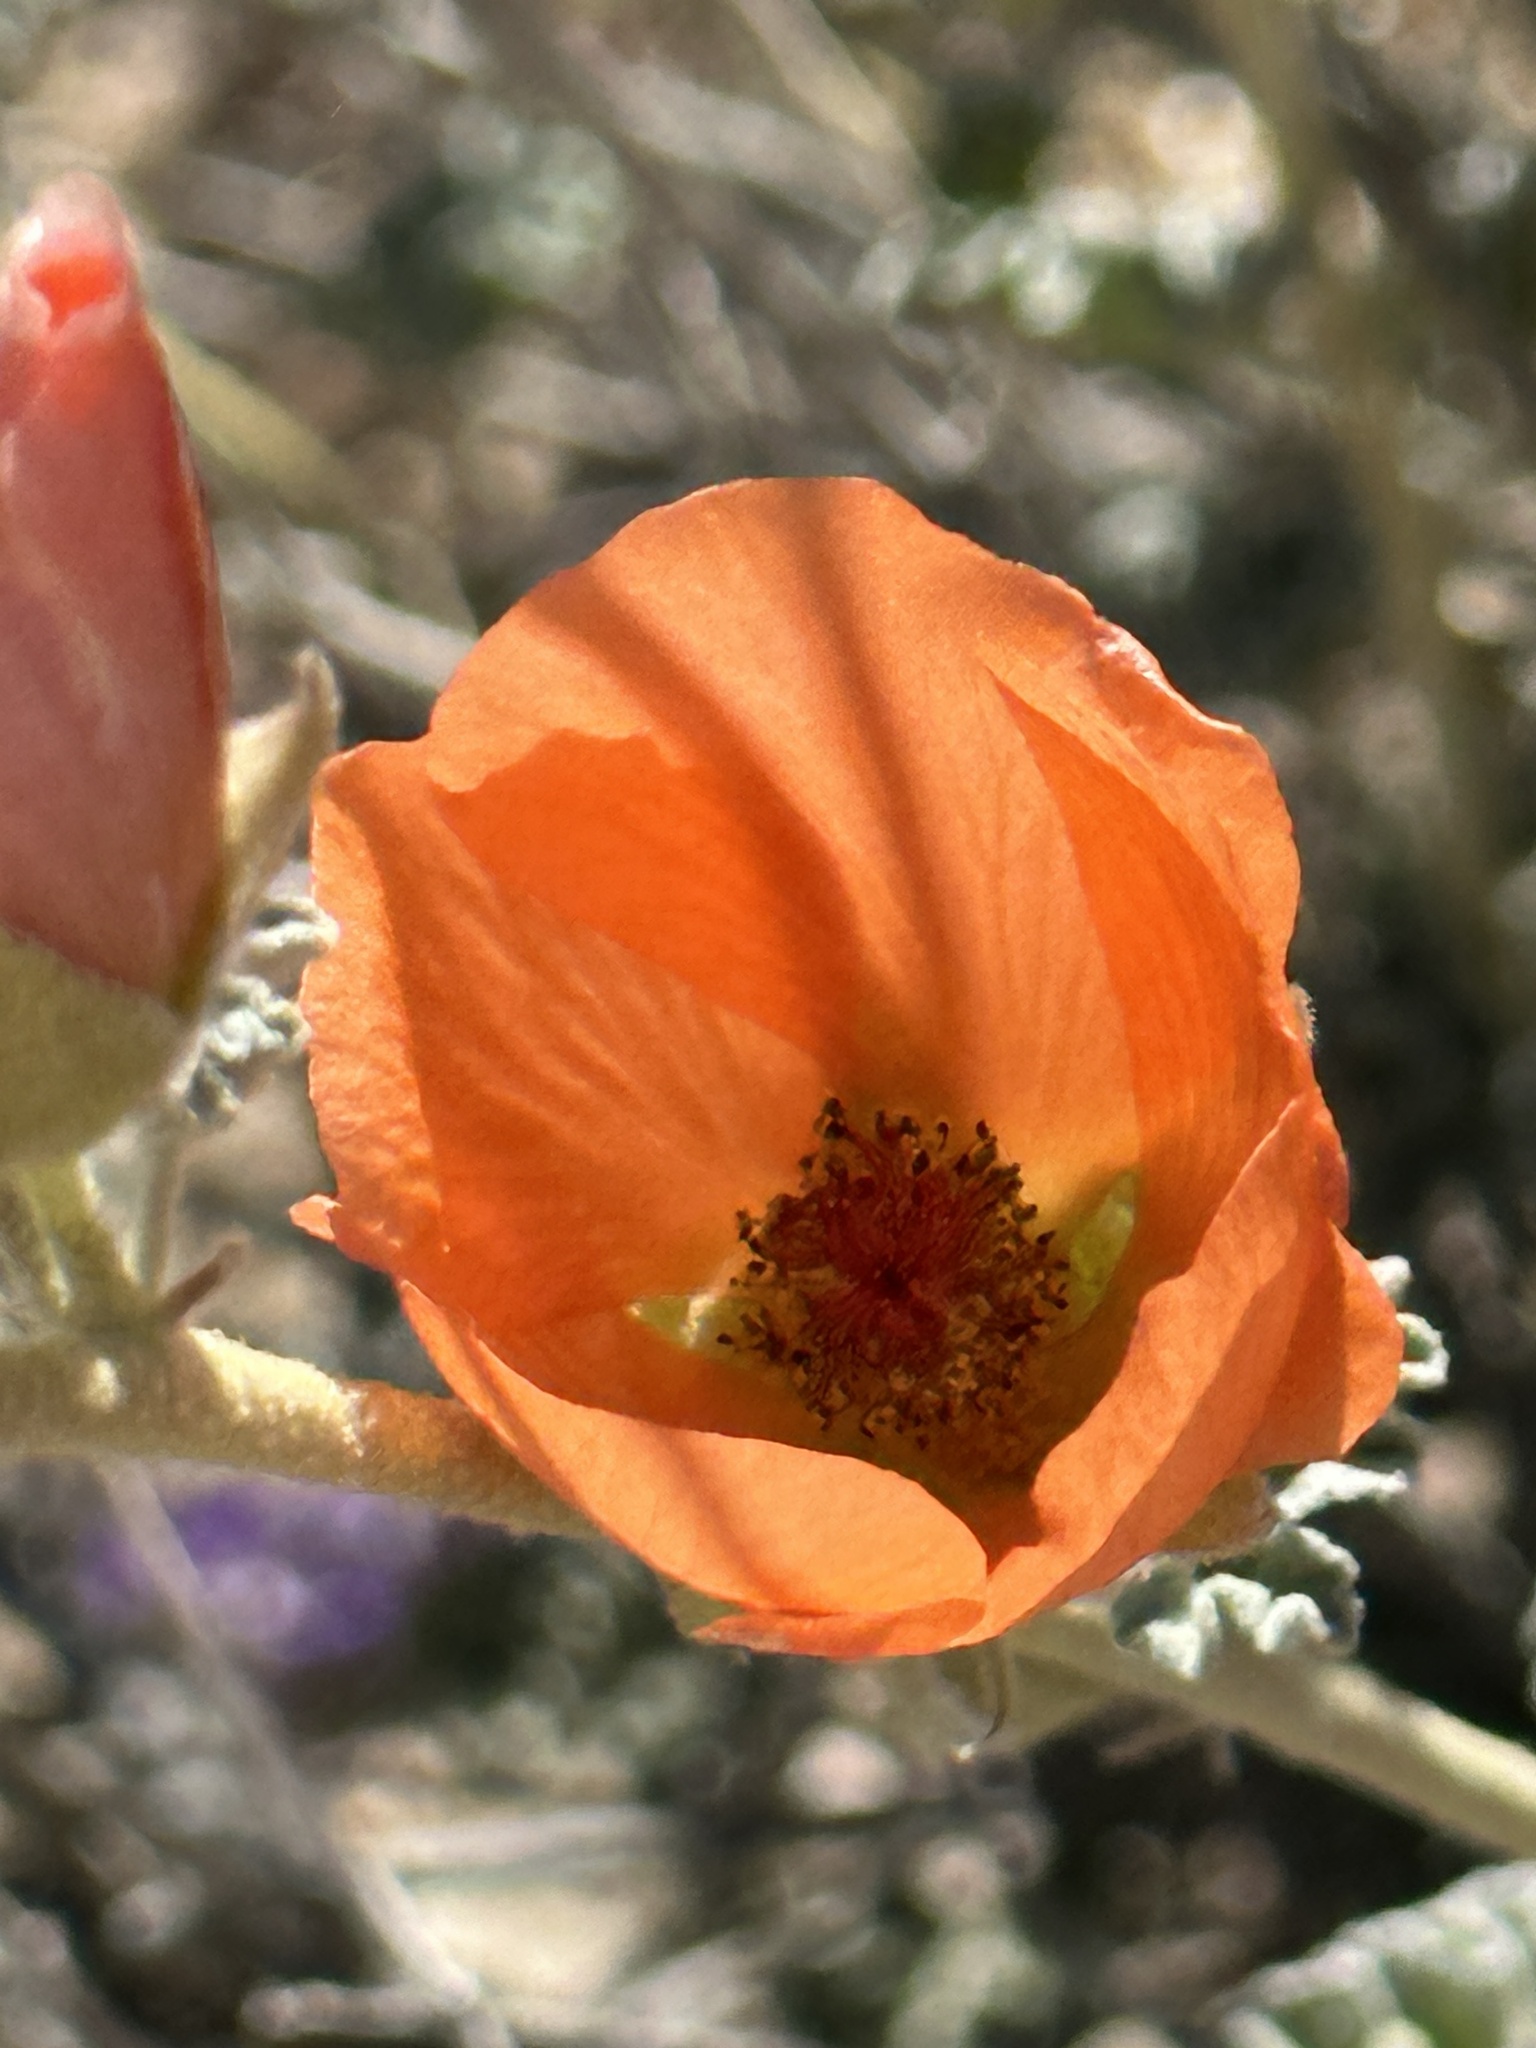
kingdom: Plantae
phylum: Tracheophyta
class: Magnoliopsida
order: Malvales
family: Malvaceae
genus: Sphaeralcea
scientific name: Sphaeralcea ambigua
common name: Apricot globe-mallow
